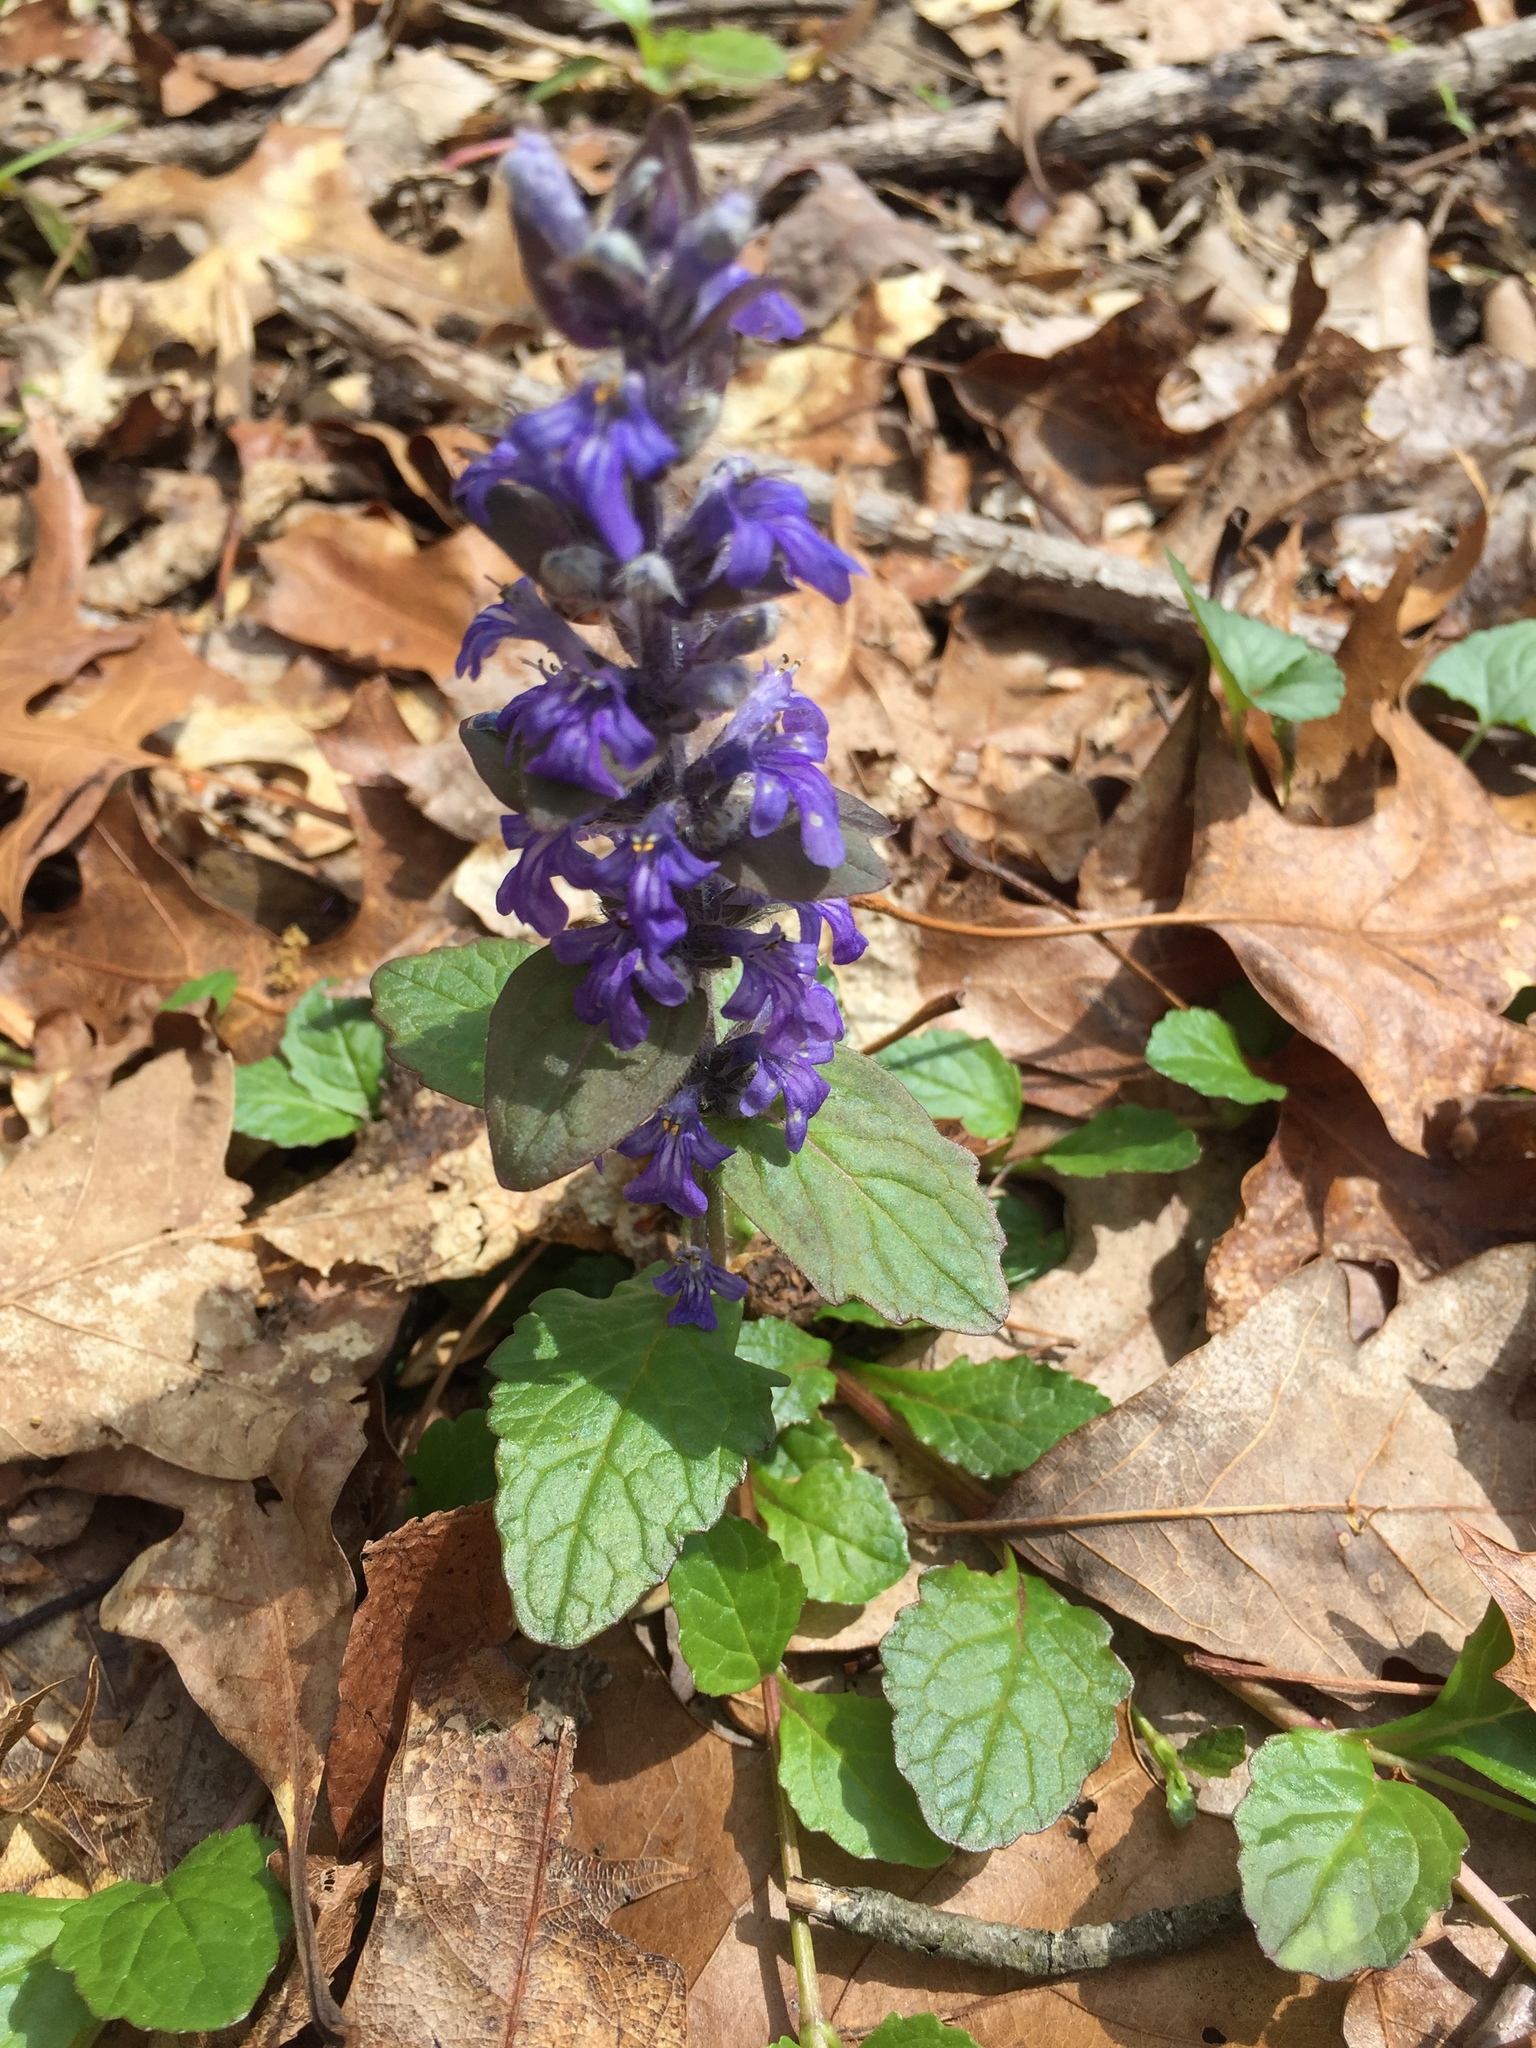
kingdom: Plantae
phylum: Tracheophyta
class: Magnoliopsida
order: Lamiales
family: Lamiaceae
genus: Ajuga
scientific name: Ajuga reptans
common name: Bugle
